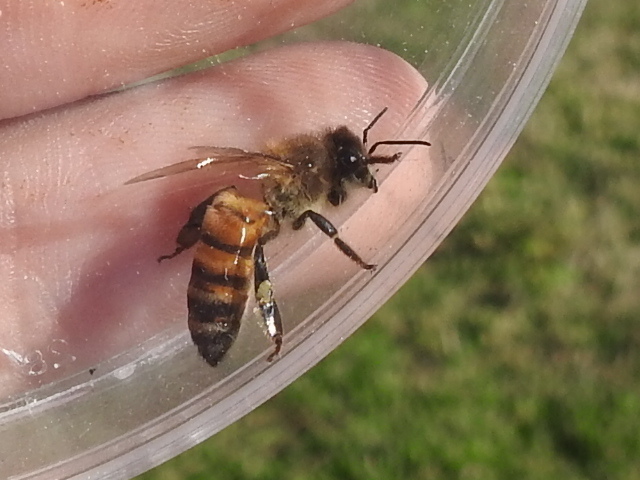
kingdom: Animalia
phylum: Arthropoda
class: Insecta
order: Hymenoptera
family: Apidae
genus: Apis
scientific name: Apis mellifera
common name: Honey bee
